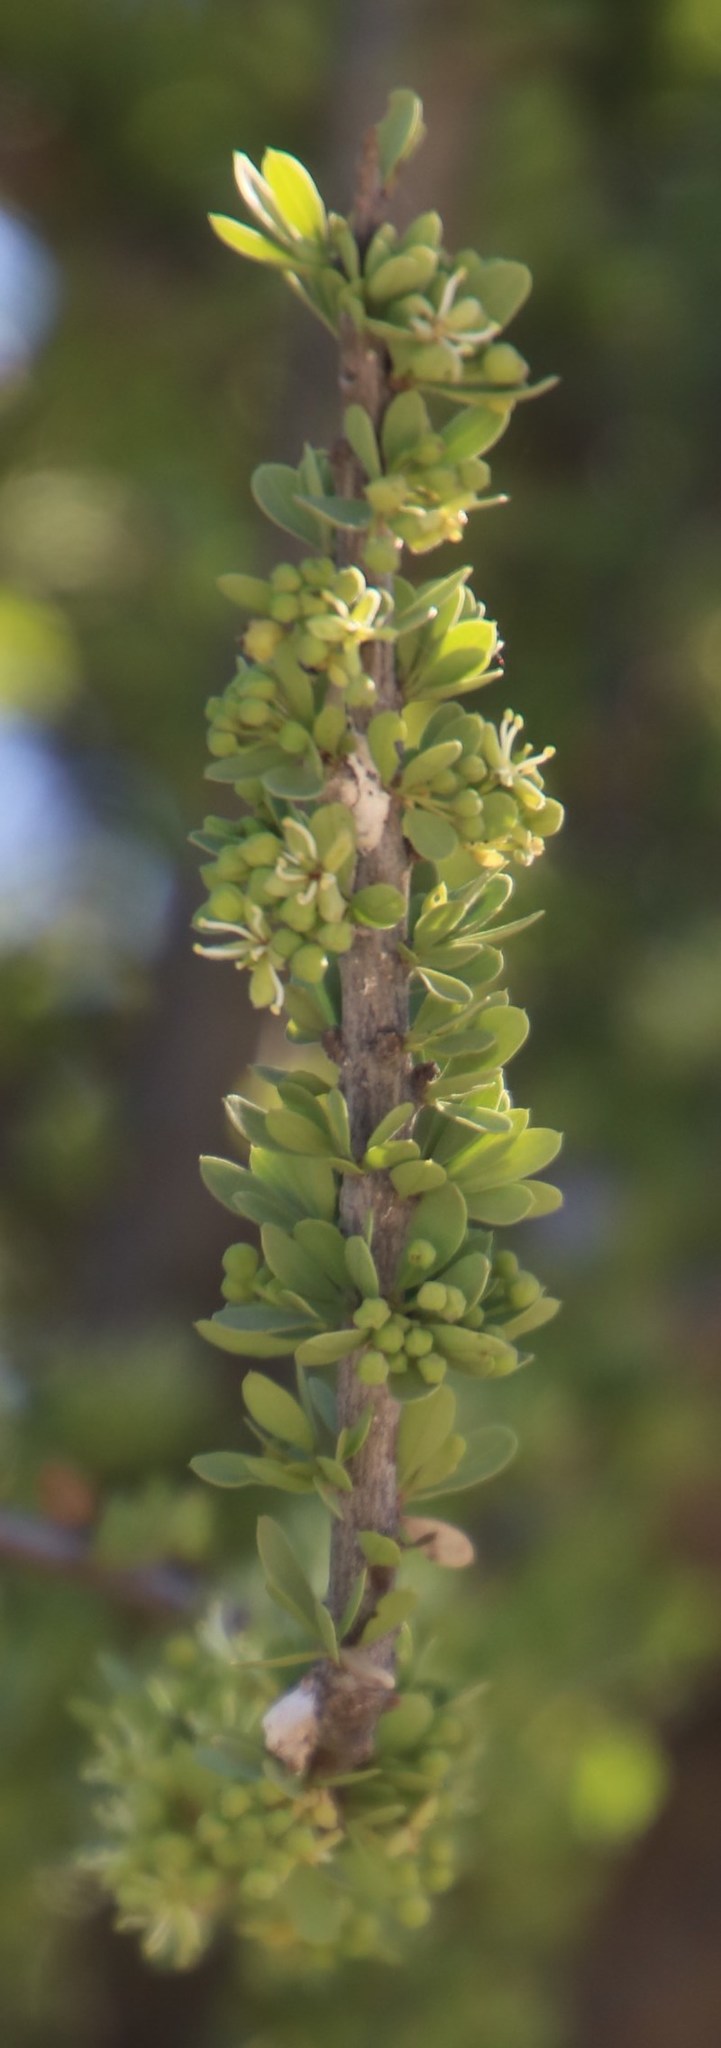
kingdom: Plantae
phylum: Tracheophyta
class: Magnoliopsida
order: Brassicales
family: Capparaceae
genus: Boscia
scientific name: Boscia foetida
